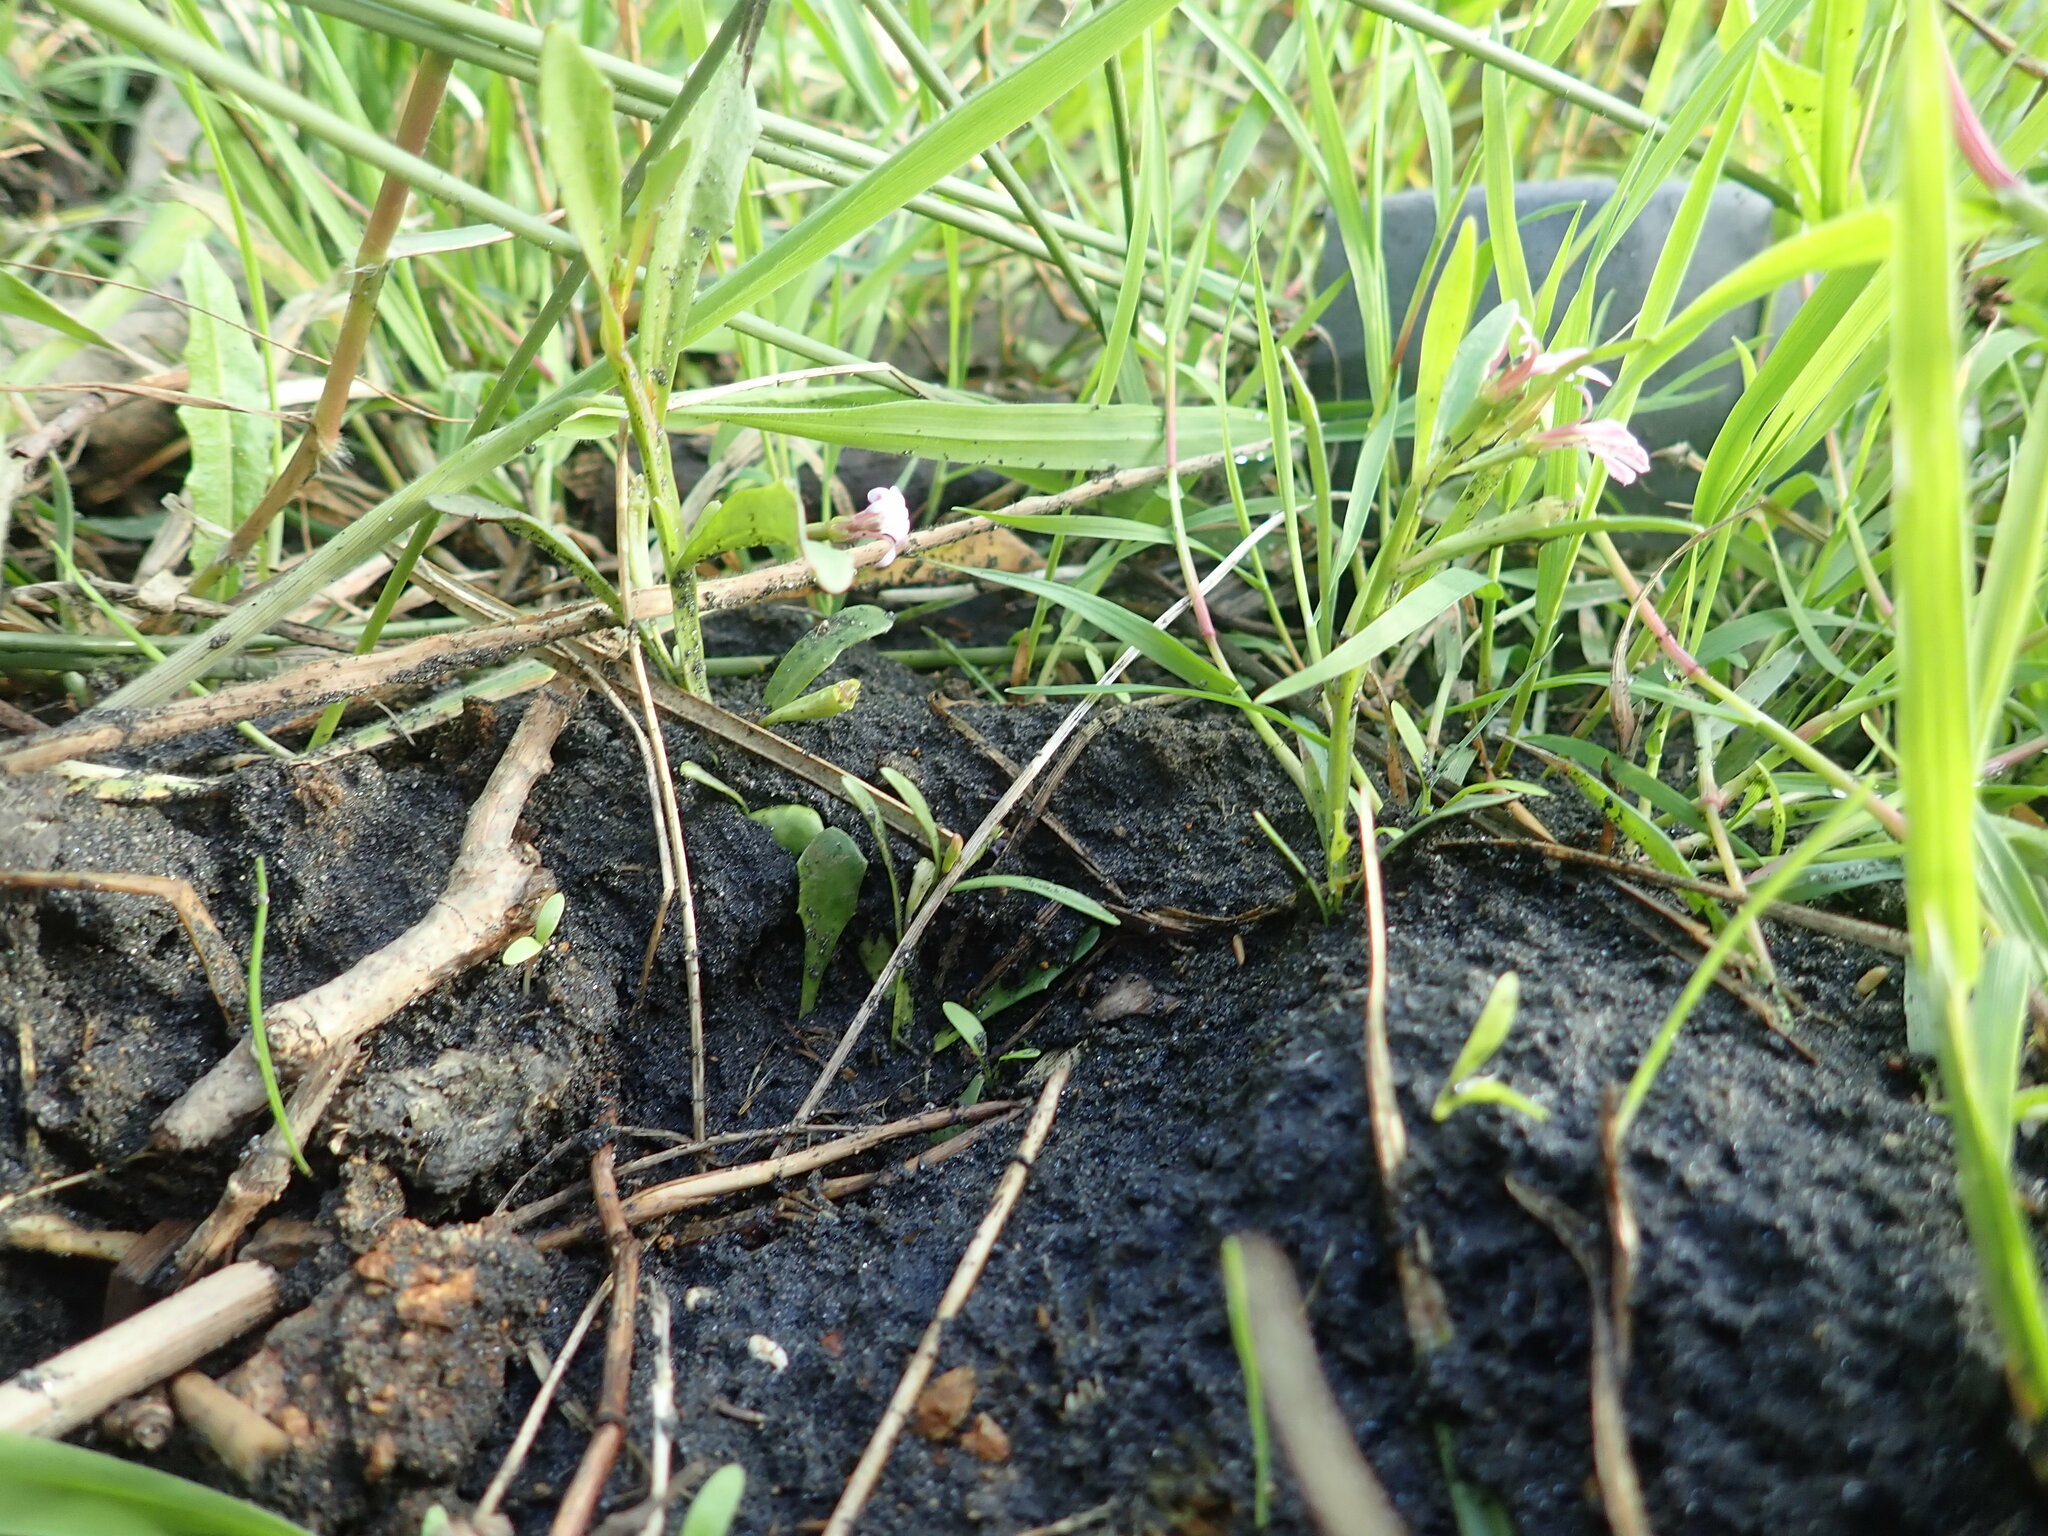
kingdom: Plantae
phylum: Tracheophyta
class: Magnoliopsida
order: Asterales
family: Campanulaceae
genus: Lobelia
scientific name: Lobelia anceps
